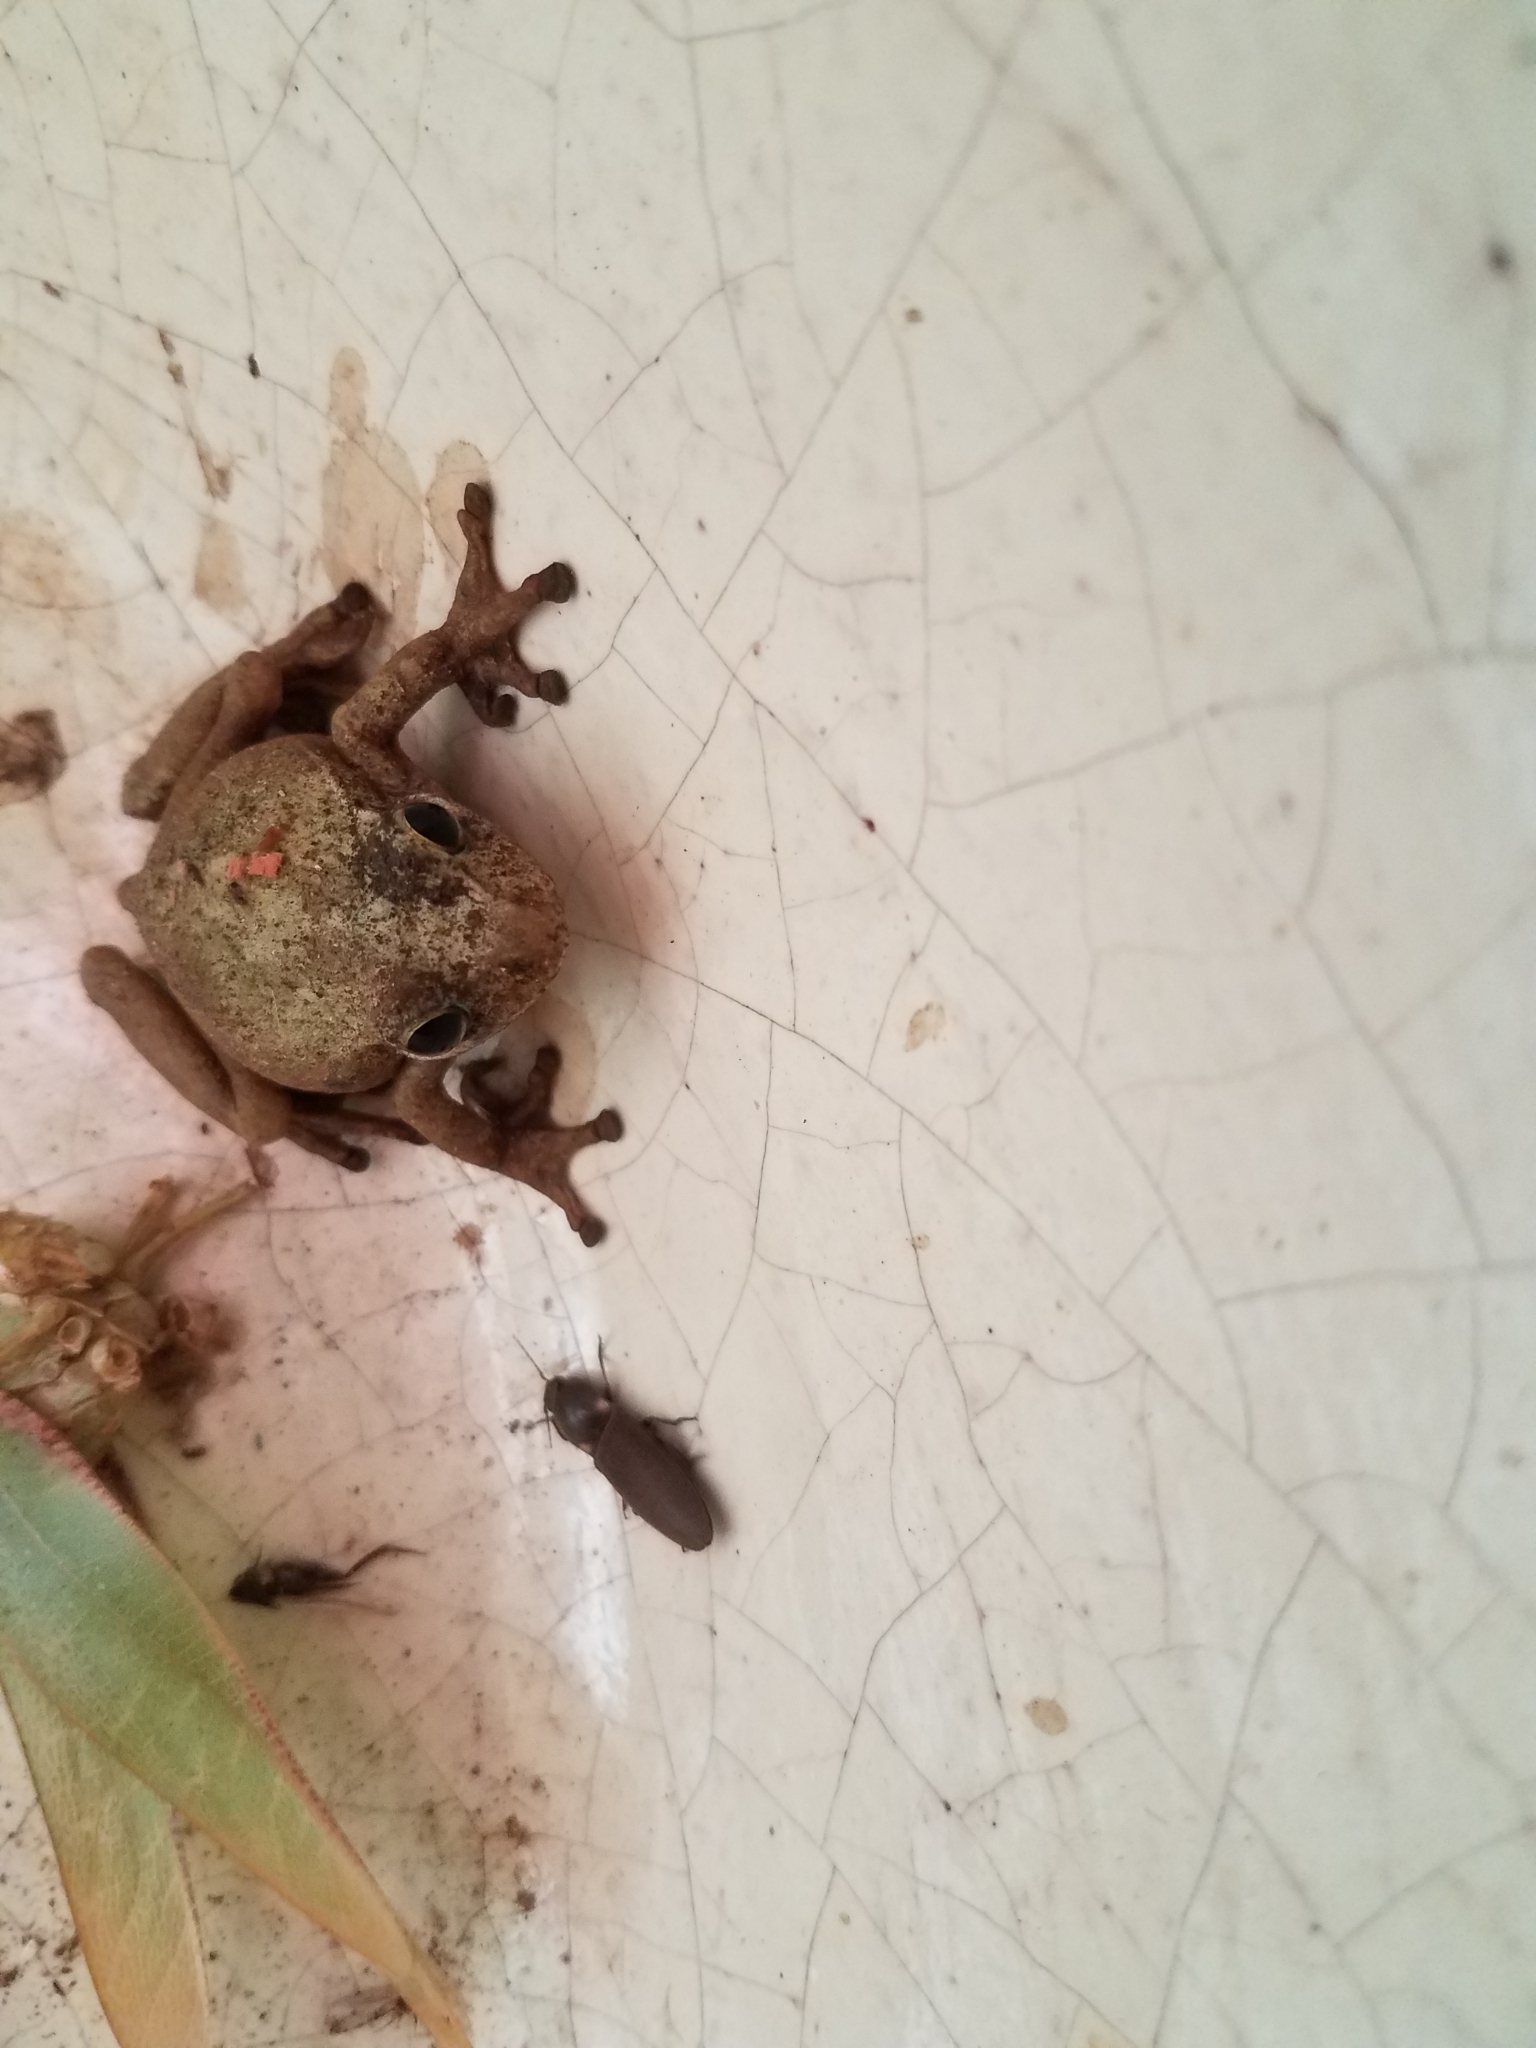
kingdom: Animalia
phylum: Chordata
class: Amphibia
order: Anura
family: Hylidae
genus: Smilisca
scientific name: Smilisca baudinii
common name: Mexican smilisca
